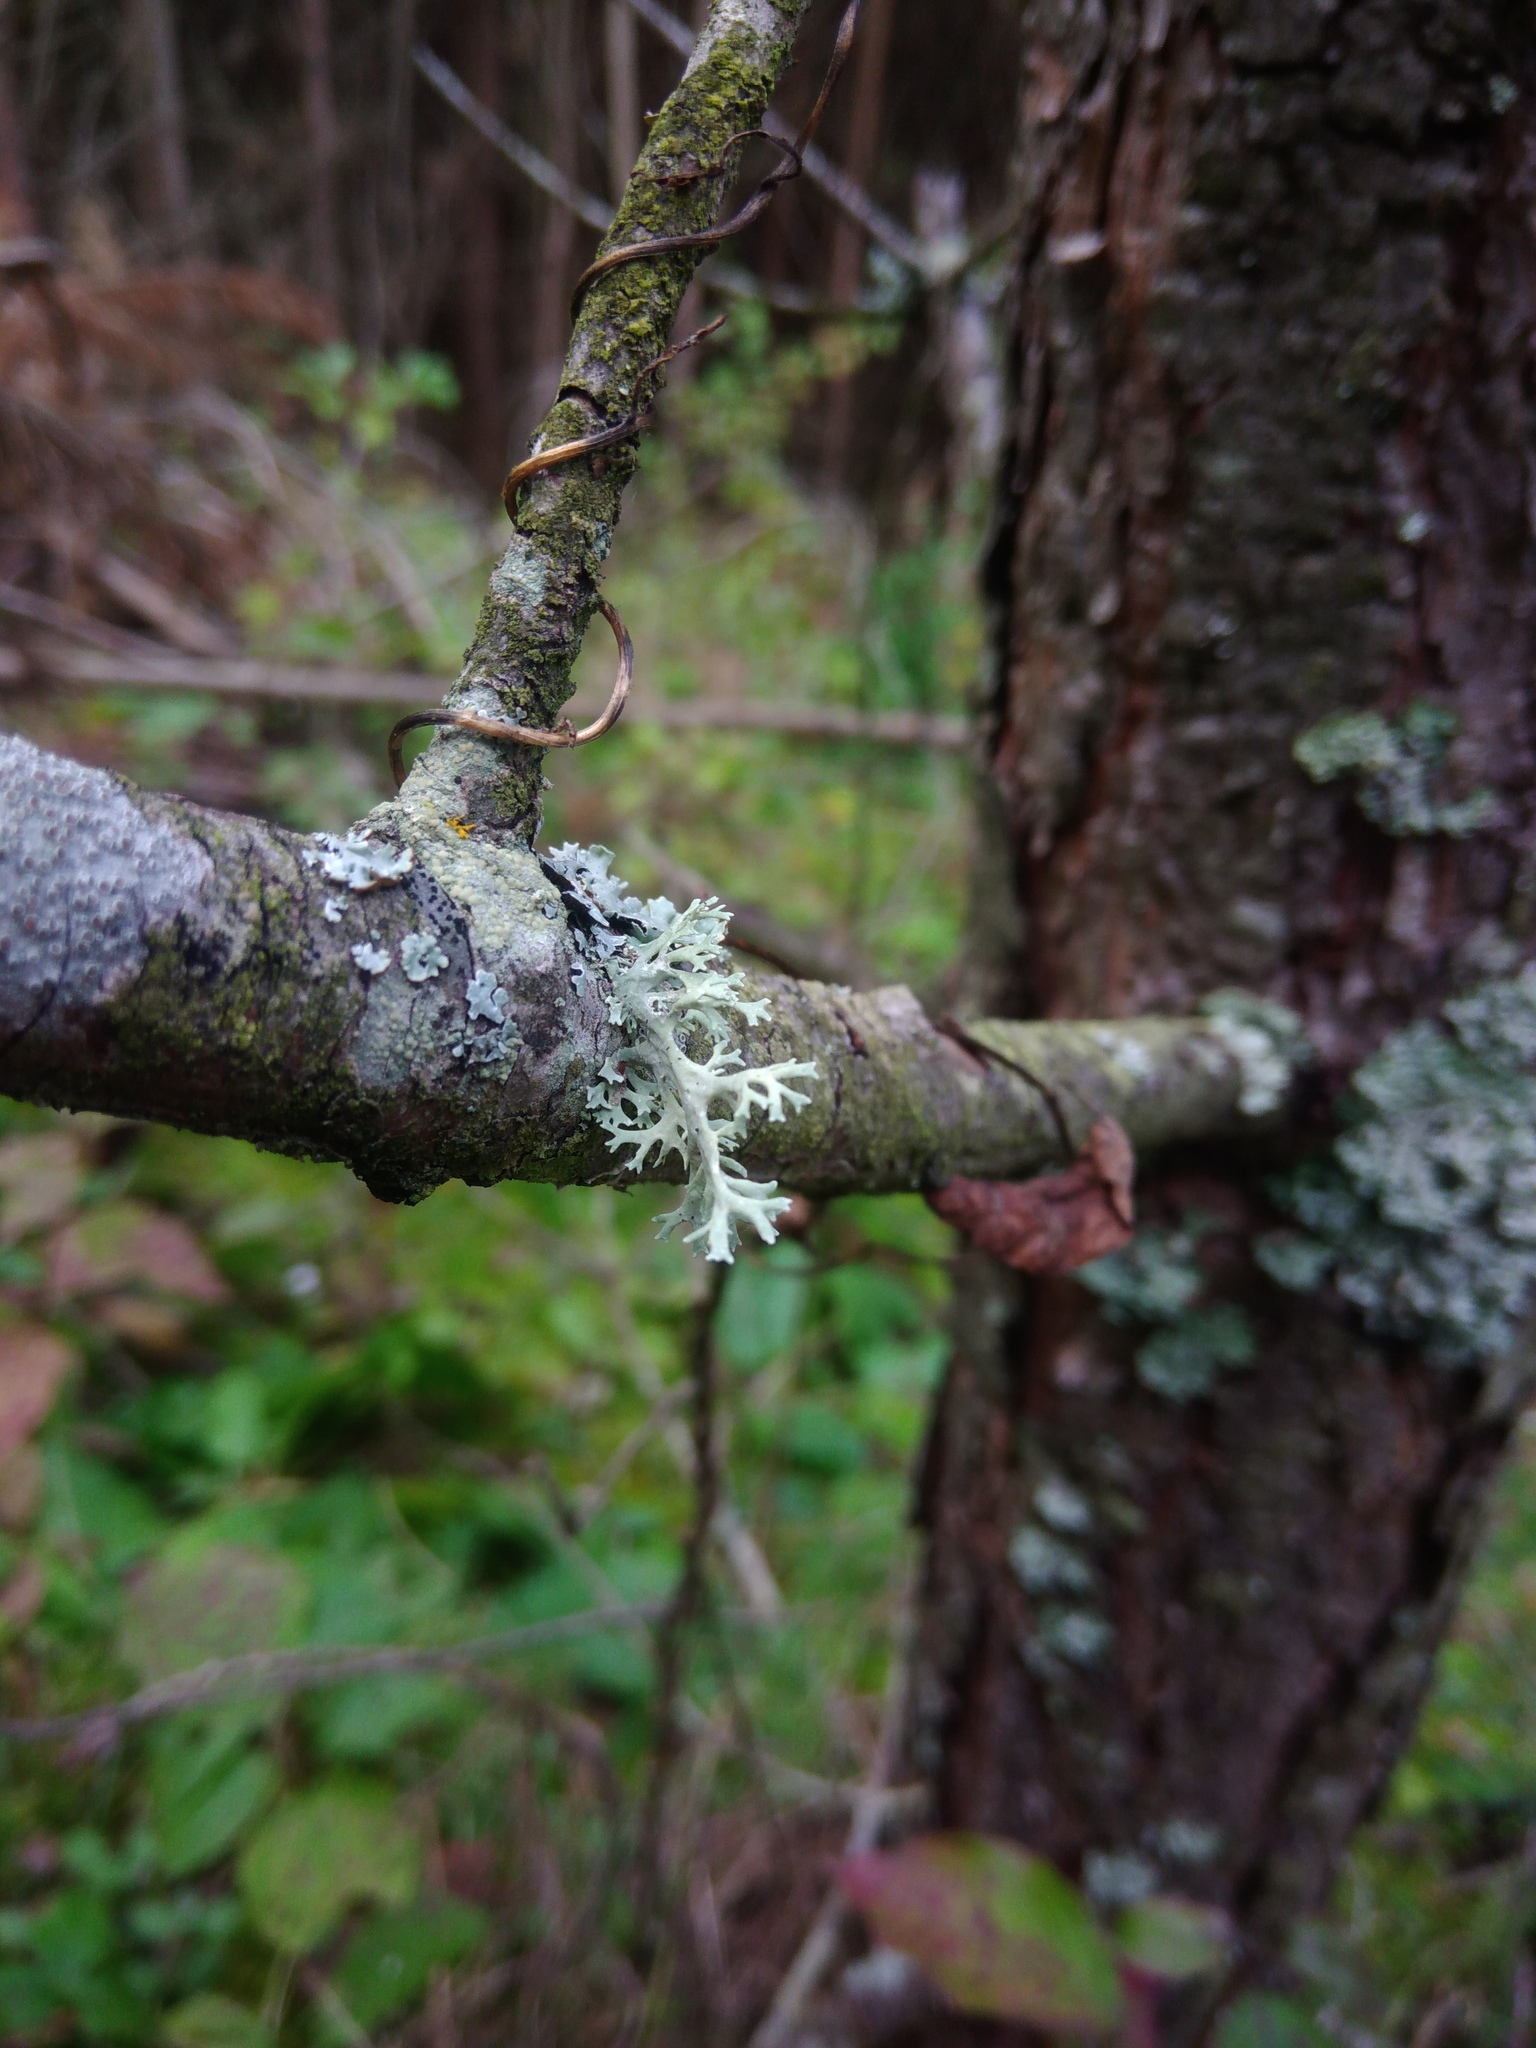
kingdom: Fungi
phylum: Ascomycota
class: Lecanoromycetes
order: Lecanorales
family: Parmeliaceae
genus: Evernia
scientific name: Evernia prunastri
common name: Oak moss
